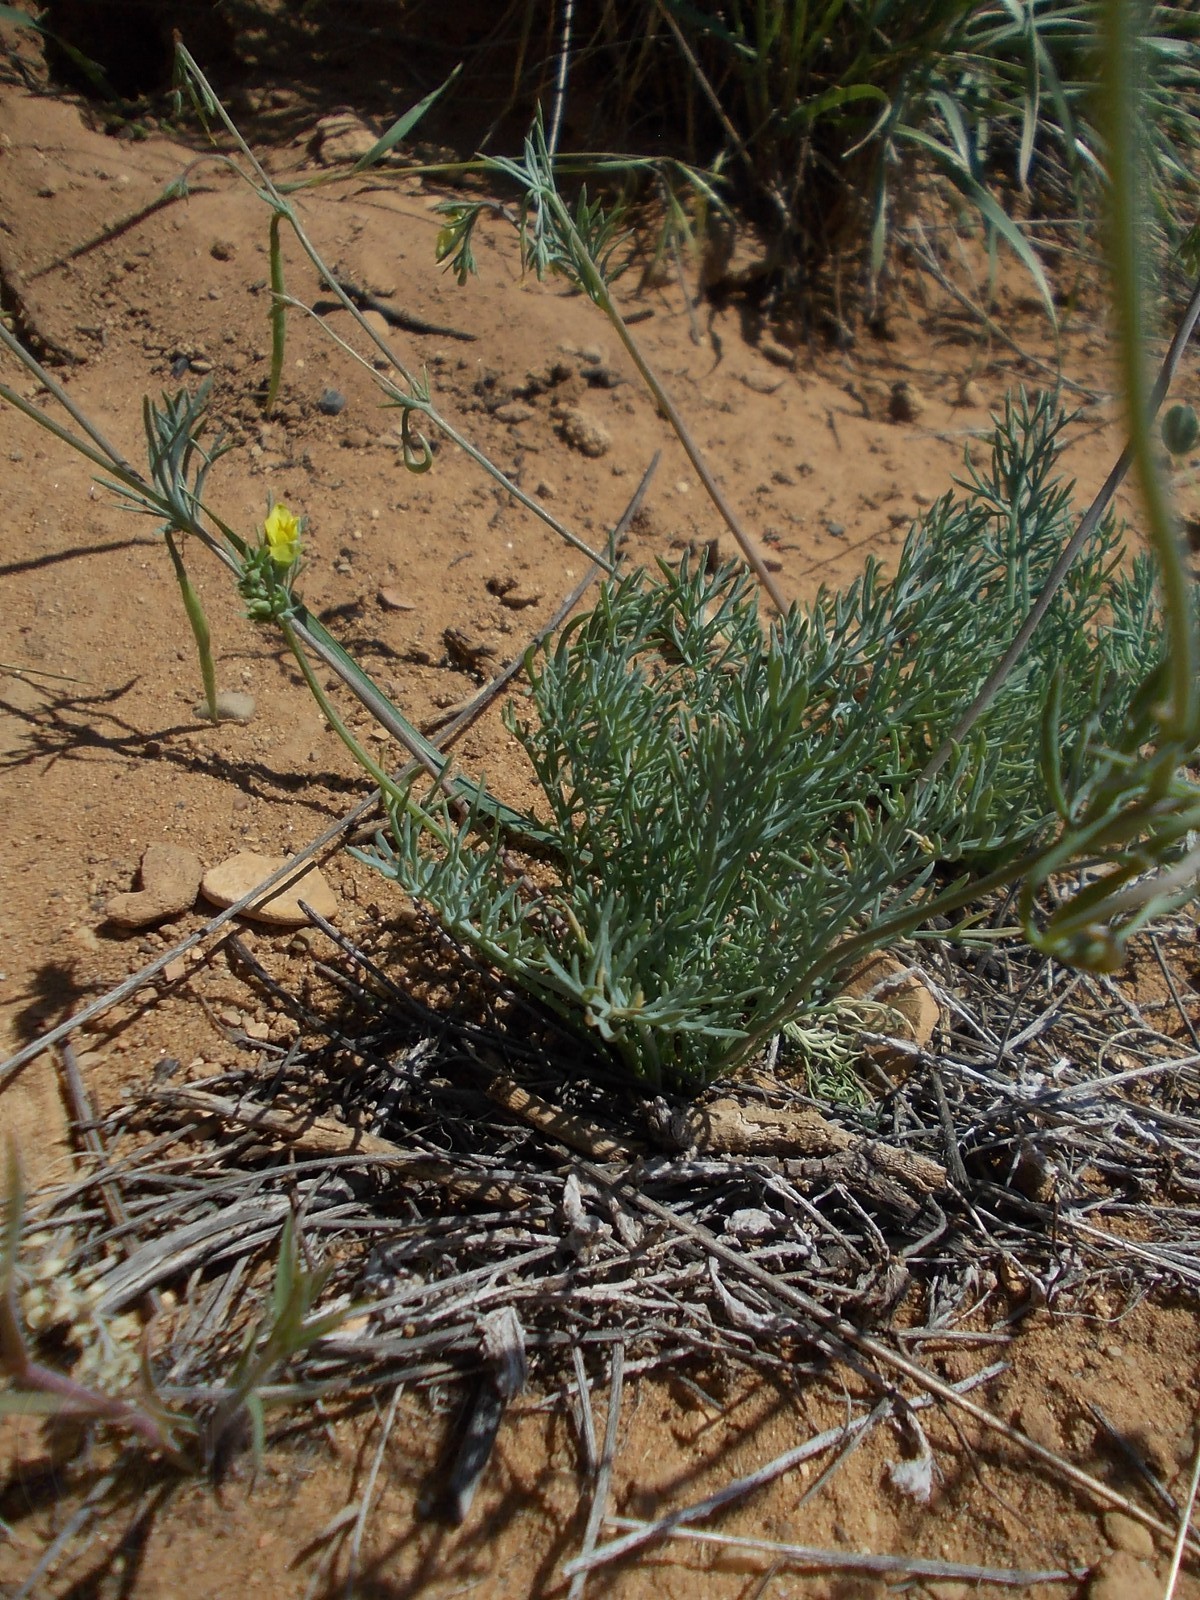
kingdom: Plantae
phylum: Tracheophyta
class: Magnoliopsida
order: Ranunculales
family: Papaveraceae
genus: Hypecoum
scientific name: Hypecoum pendulum
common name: Nodding hypecoum
